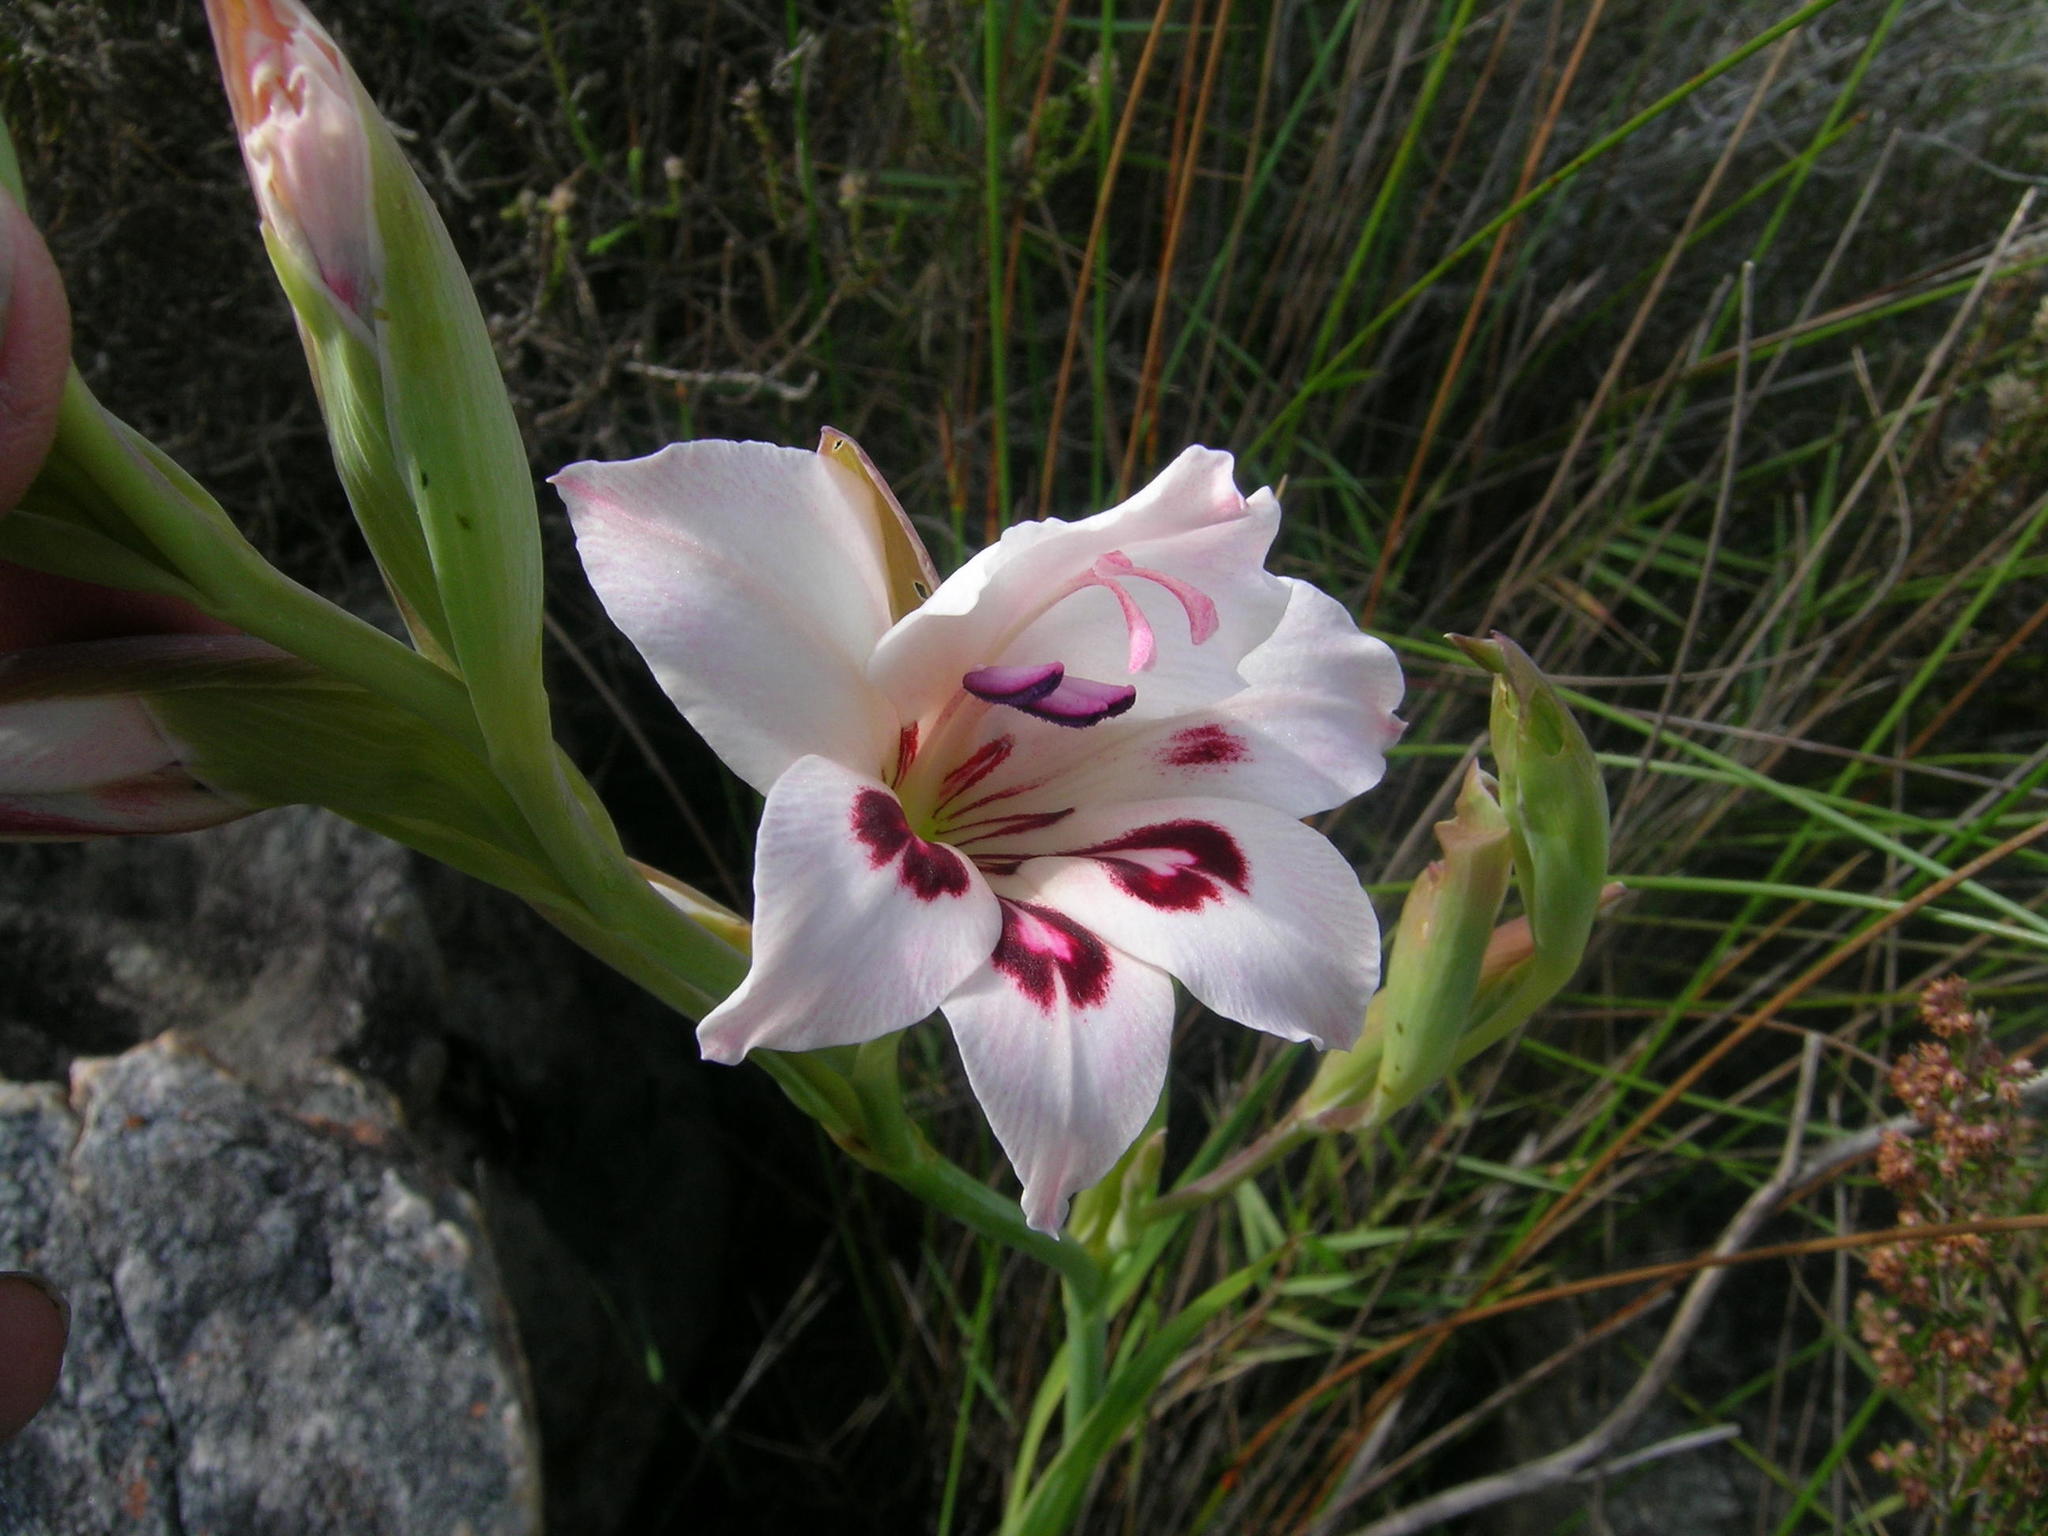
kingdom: Plantae
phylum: Tracheophyta
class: Liliopsida
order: Asparagales
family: Iridaceae
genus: Gladiolus
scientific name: Gladiolus carneus
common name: Painted-lady
